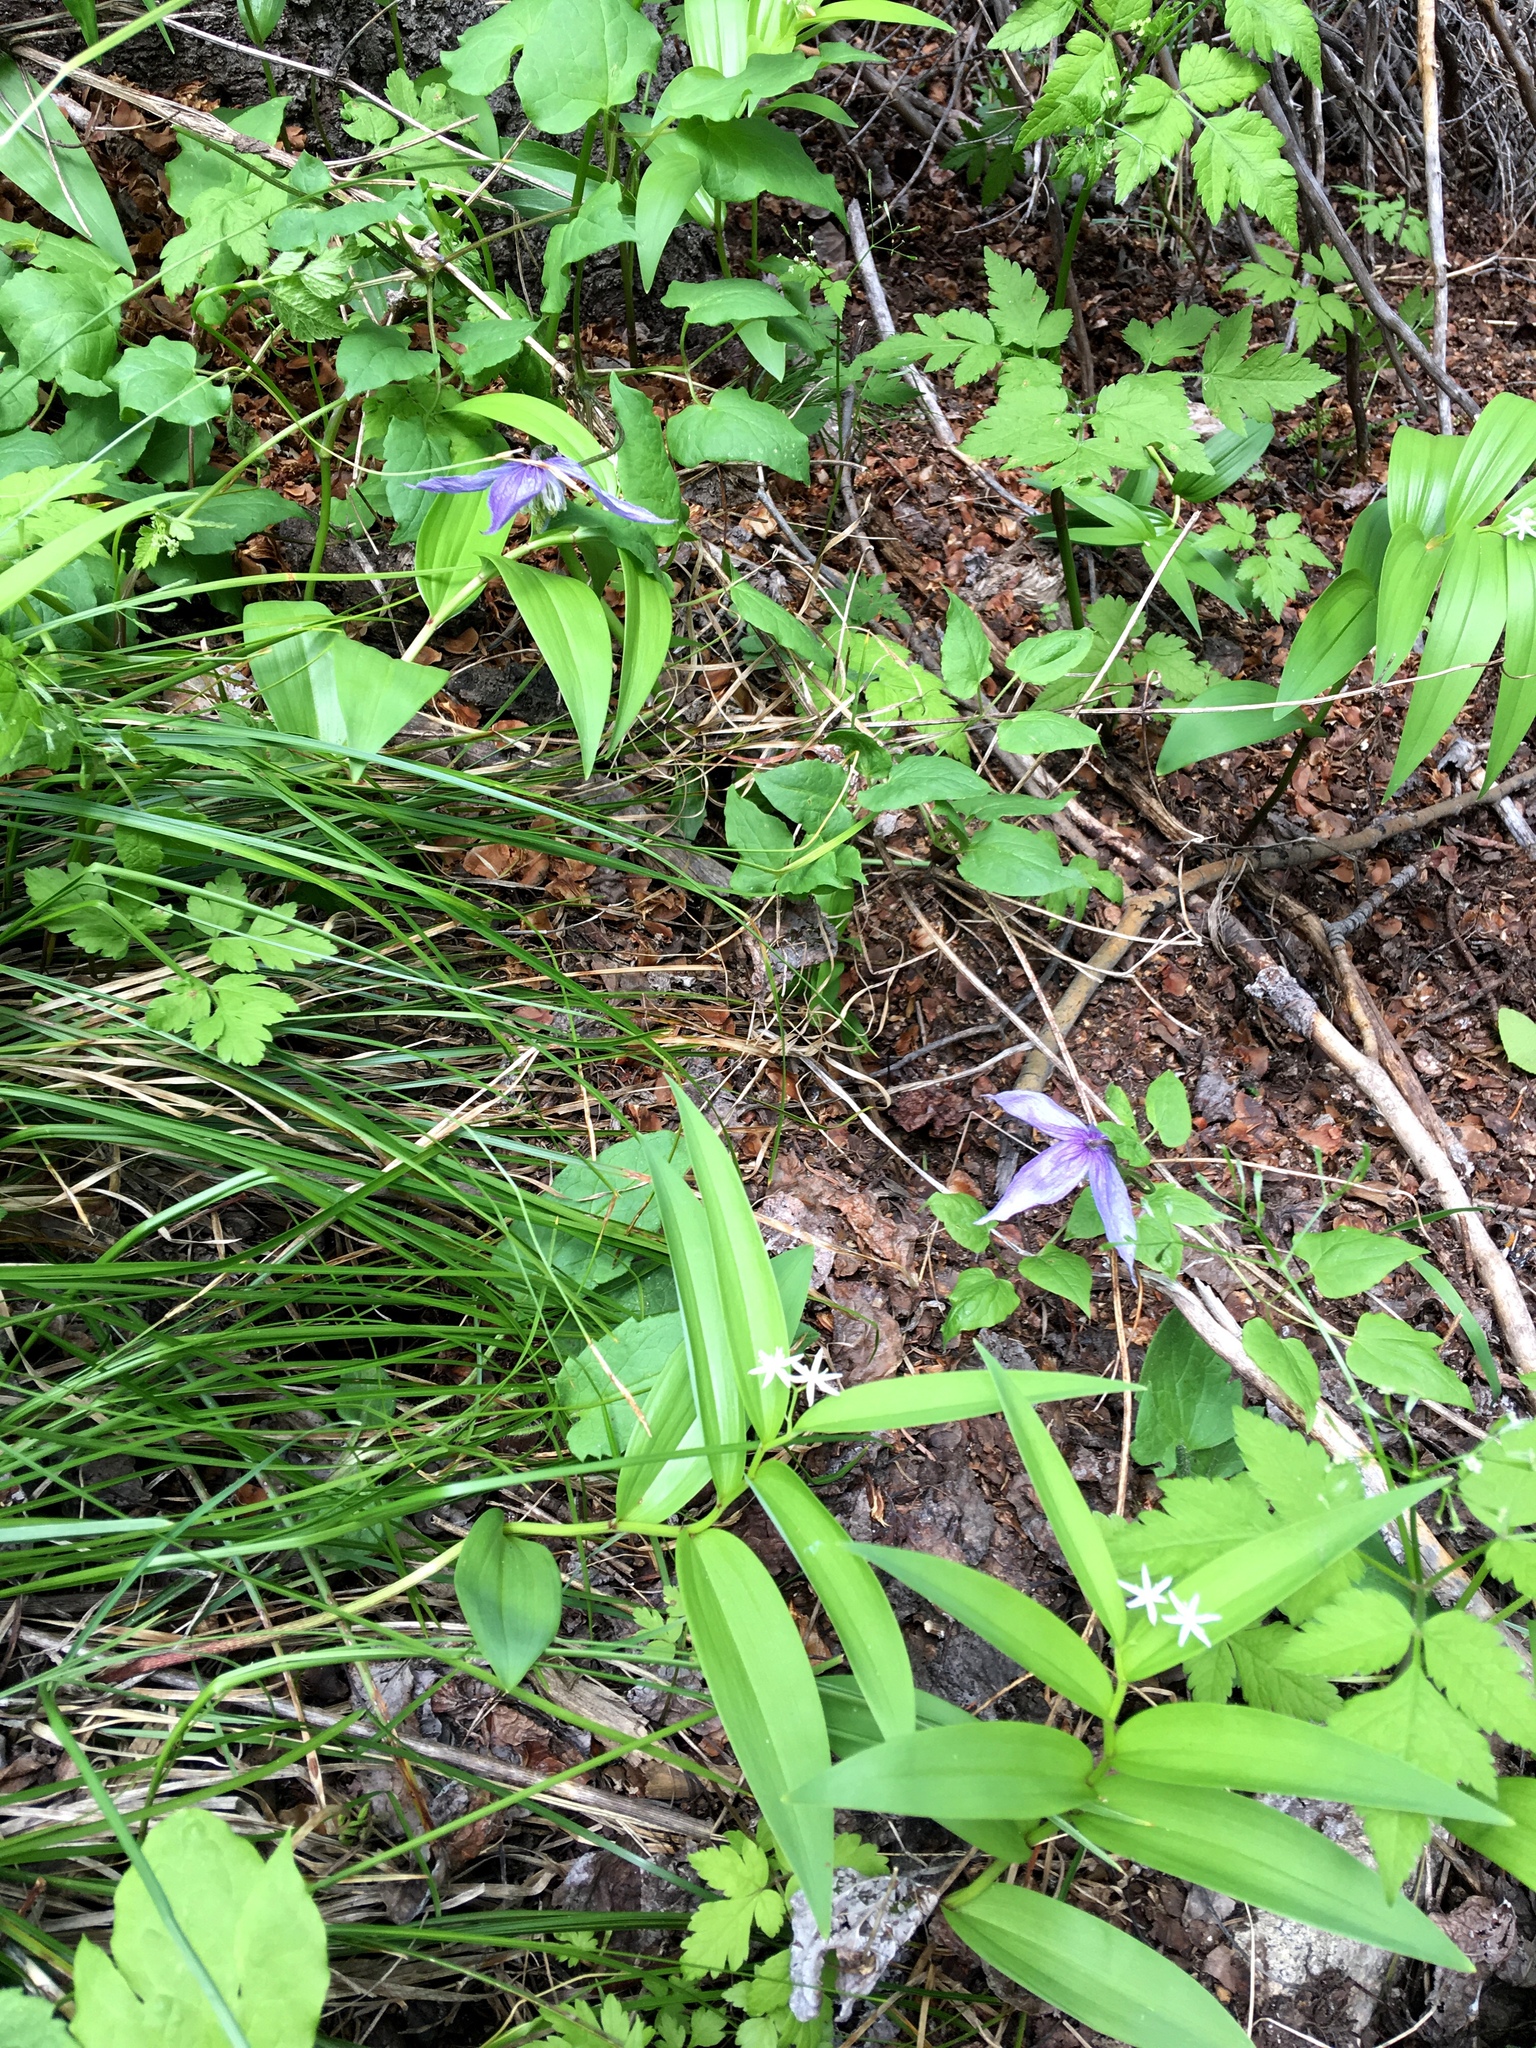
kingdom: Plantae
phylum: Tracheophyta
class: Magnoliopsida
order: Ranunculales
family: Ranunculaceae
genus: Clematis
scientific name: Clematis occidentalis
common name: Purple clematis
